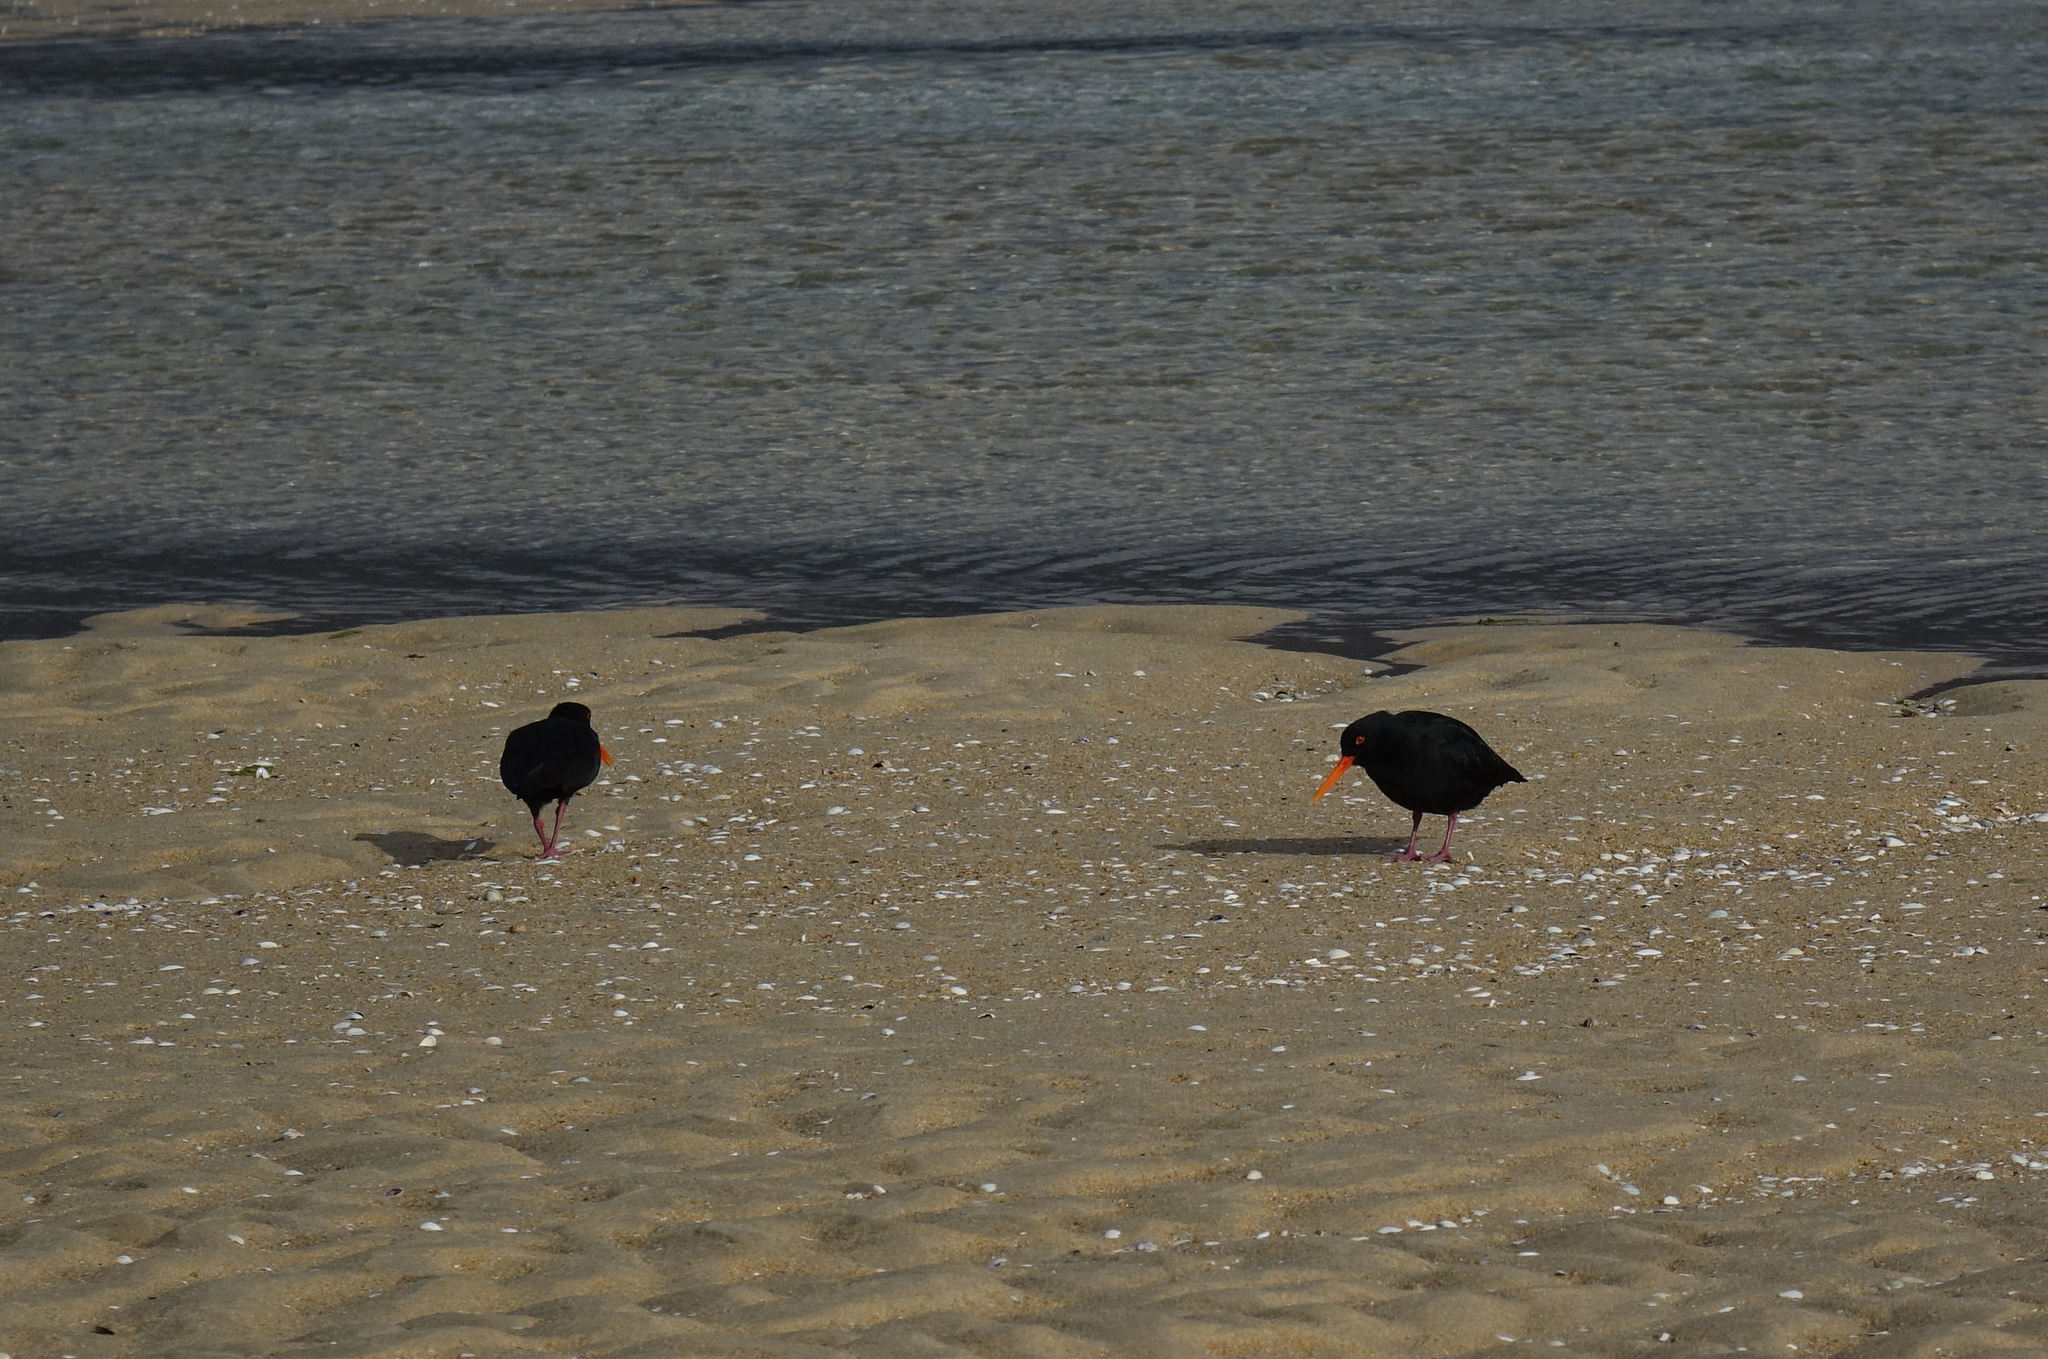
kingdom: Animalia
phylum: Chordata
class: Aves
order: Charadriiformes
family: Haematopodidae
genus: Haematopus
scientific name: Haematopus unicolor
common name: Variable oystercatcher
